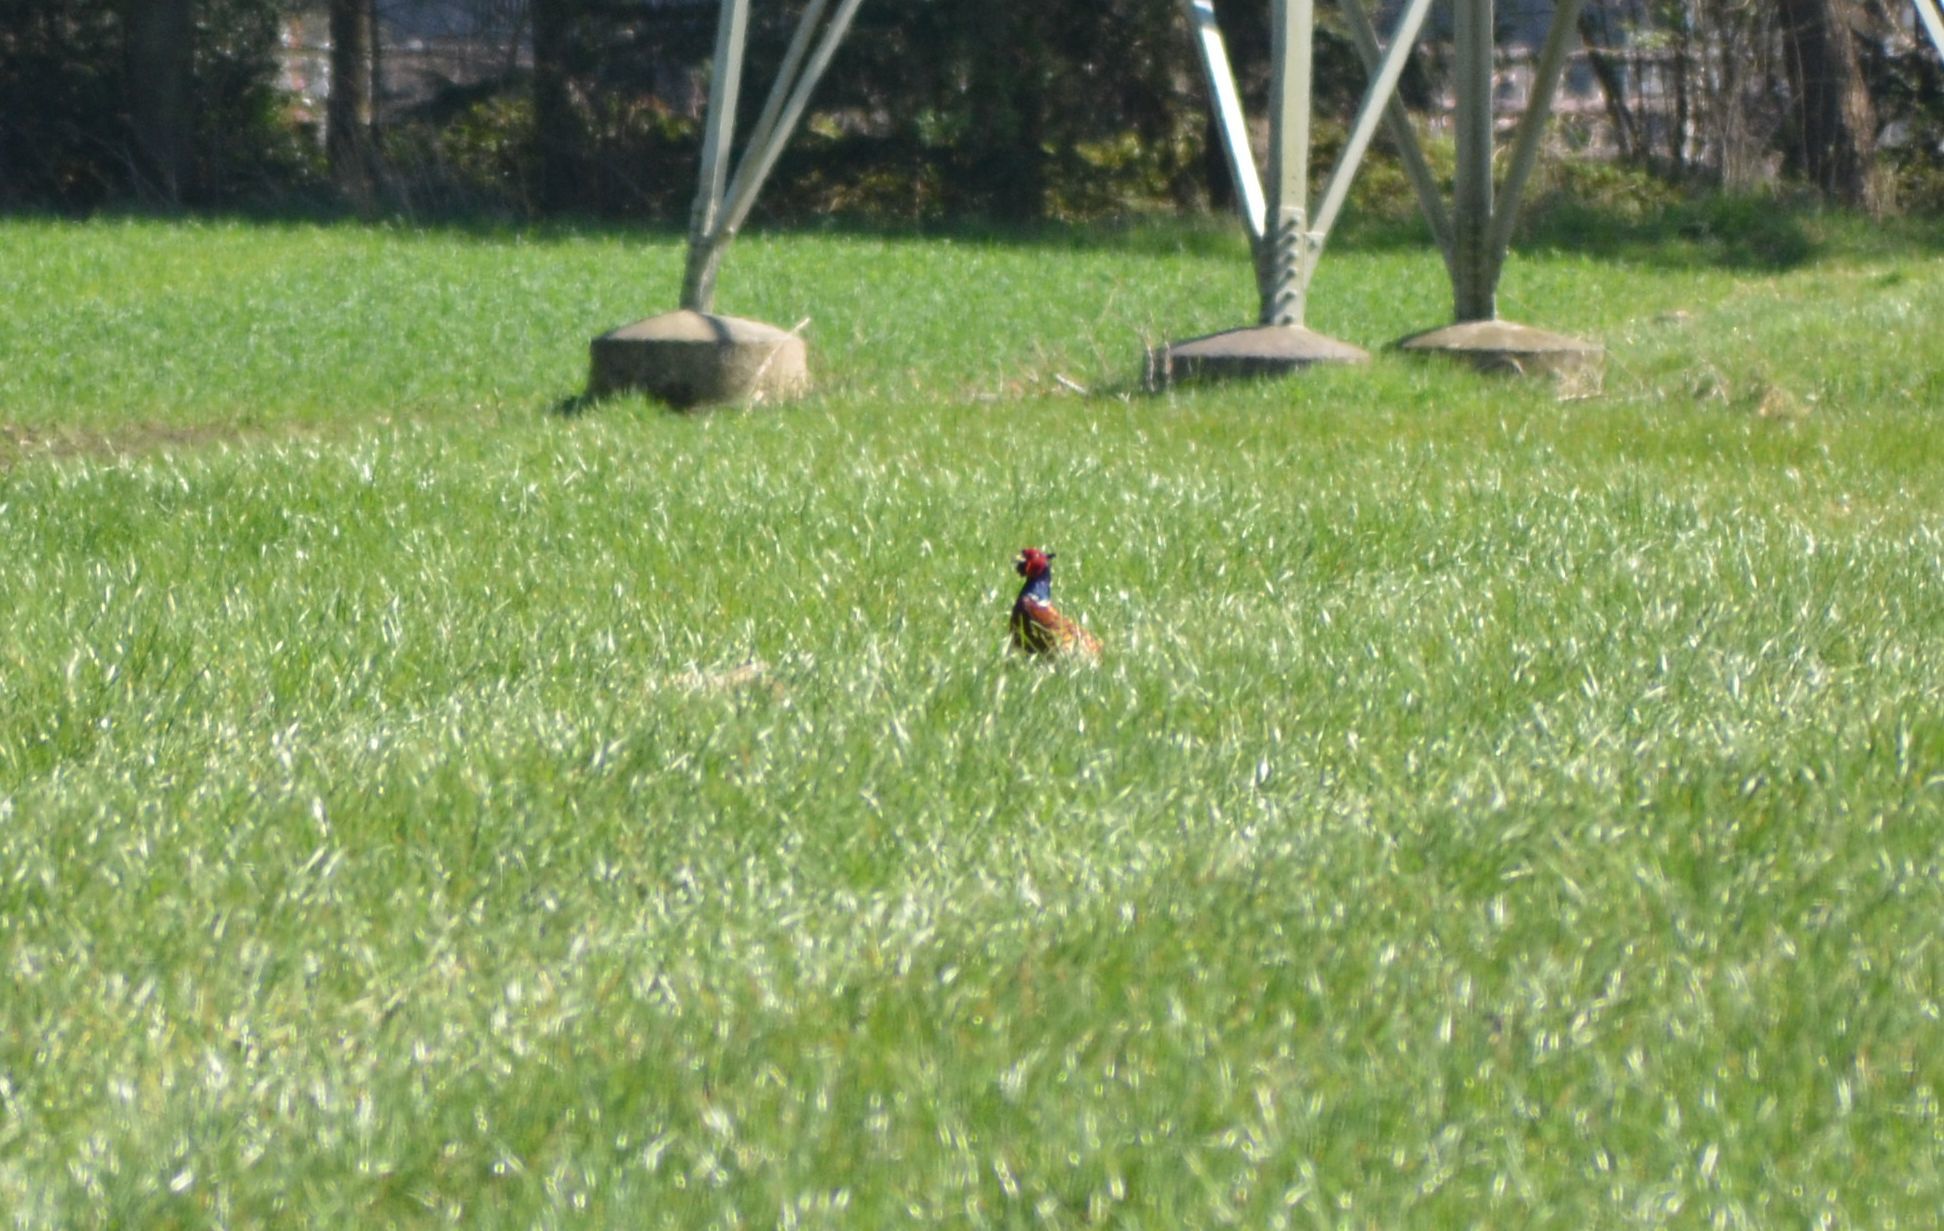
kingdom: Animalia
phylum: Chordata
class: Aves
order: Galliformes
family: Phasianidae
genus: Phasianus
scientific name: Phasianus colchicus
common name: Common pheasant
